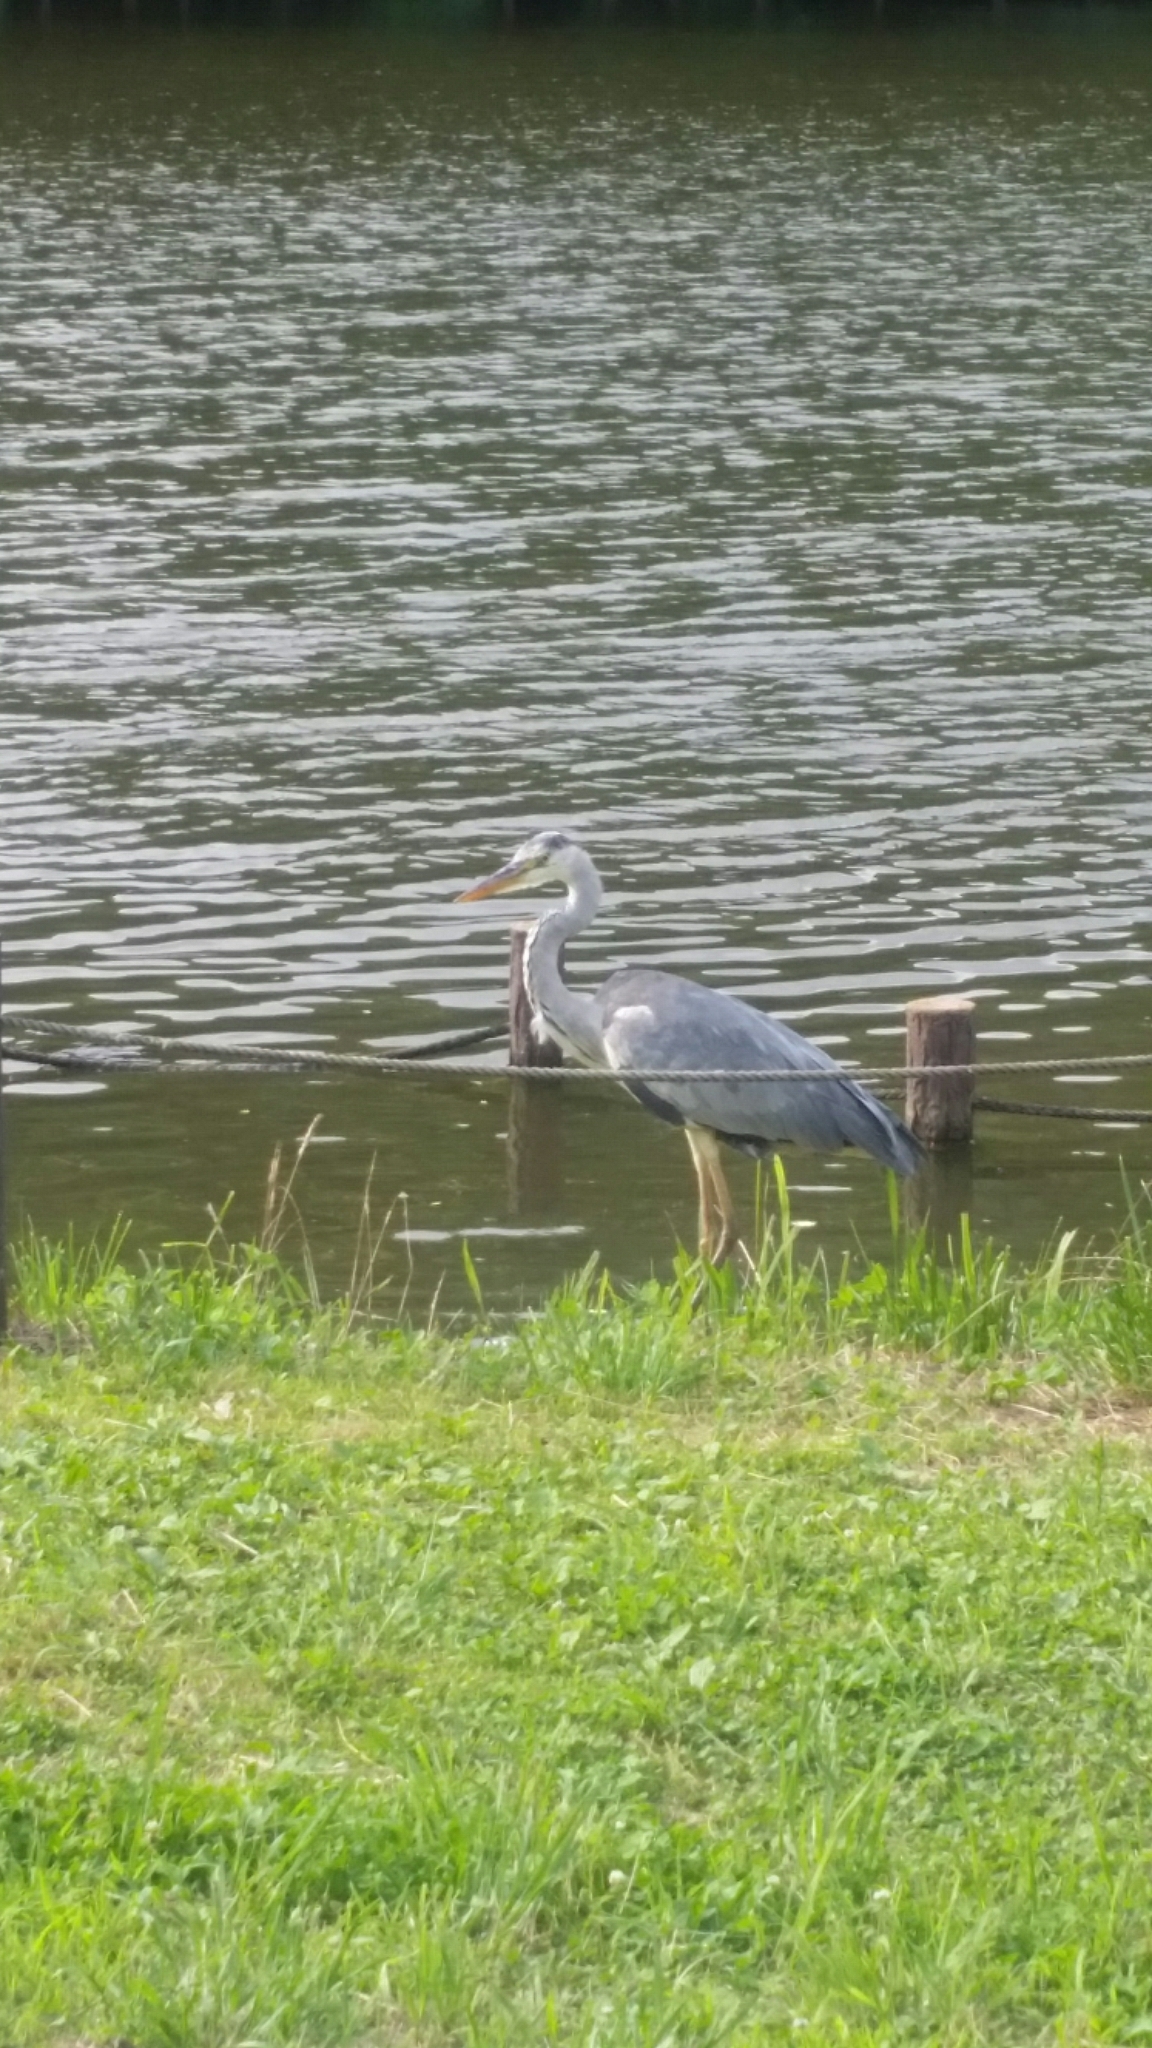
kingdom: Animalia
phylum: Chordata
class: Aves
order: Pelecaniformes
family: Ardeidae
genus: Ardea
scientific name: Ardea cinerea
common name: Grey heron
